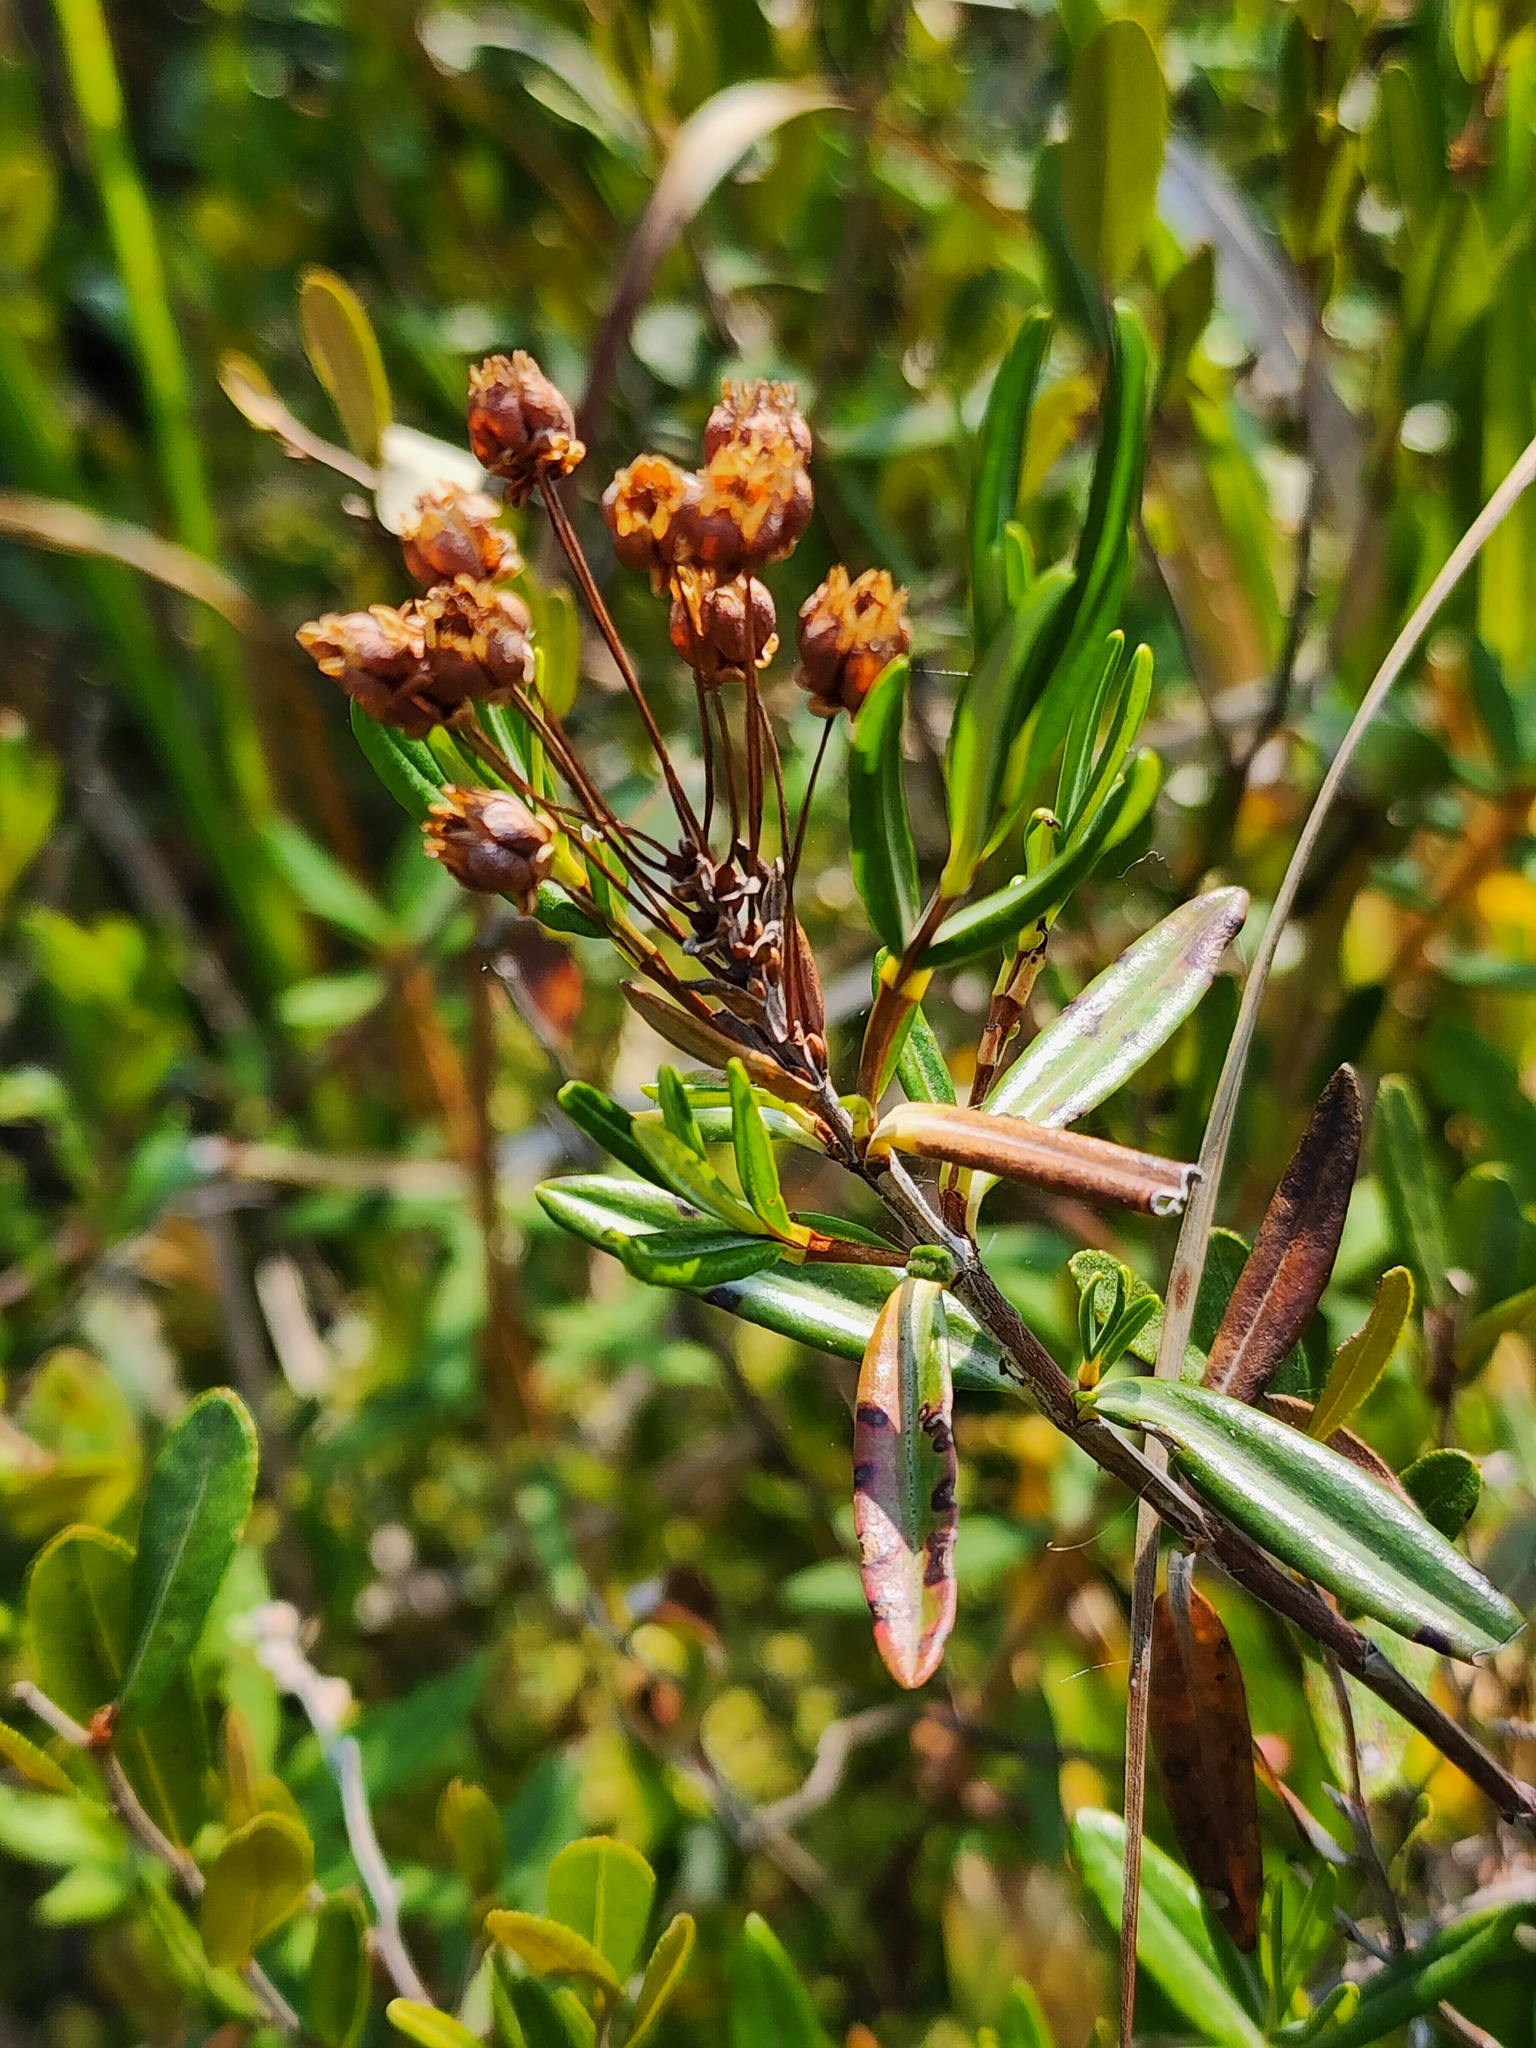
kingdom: Plantae
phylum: Tracheophyta
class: Magnoliopsida
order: Ericales
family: Ericaceae
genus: Kalmia
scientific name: Kalmia polifolia
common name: Bog-laurel
